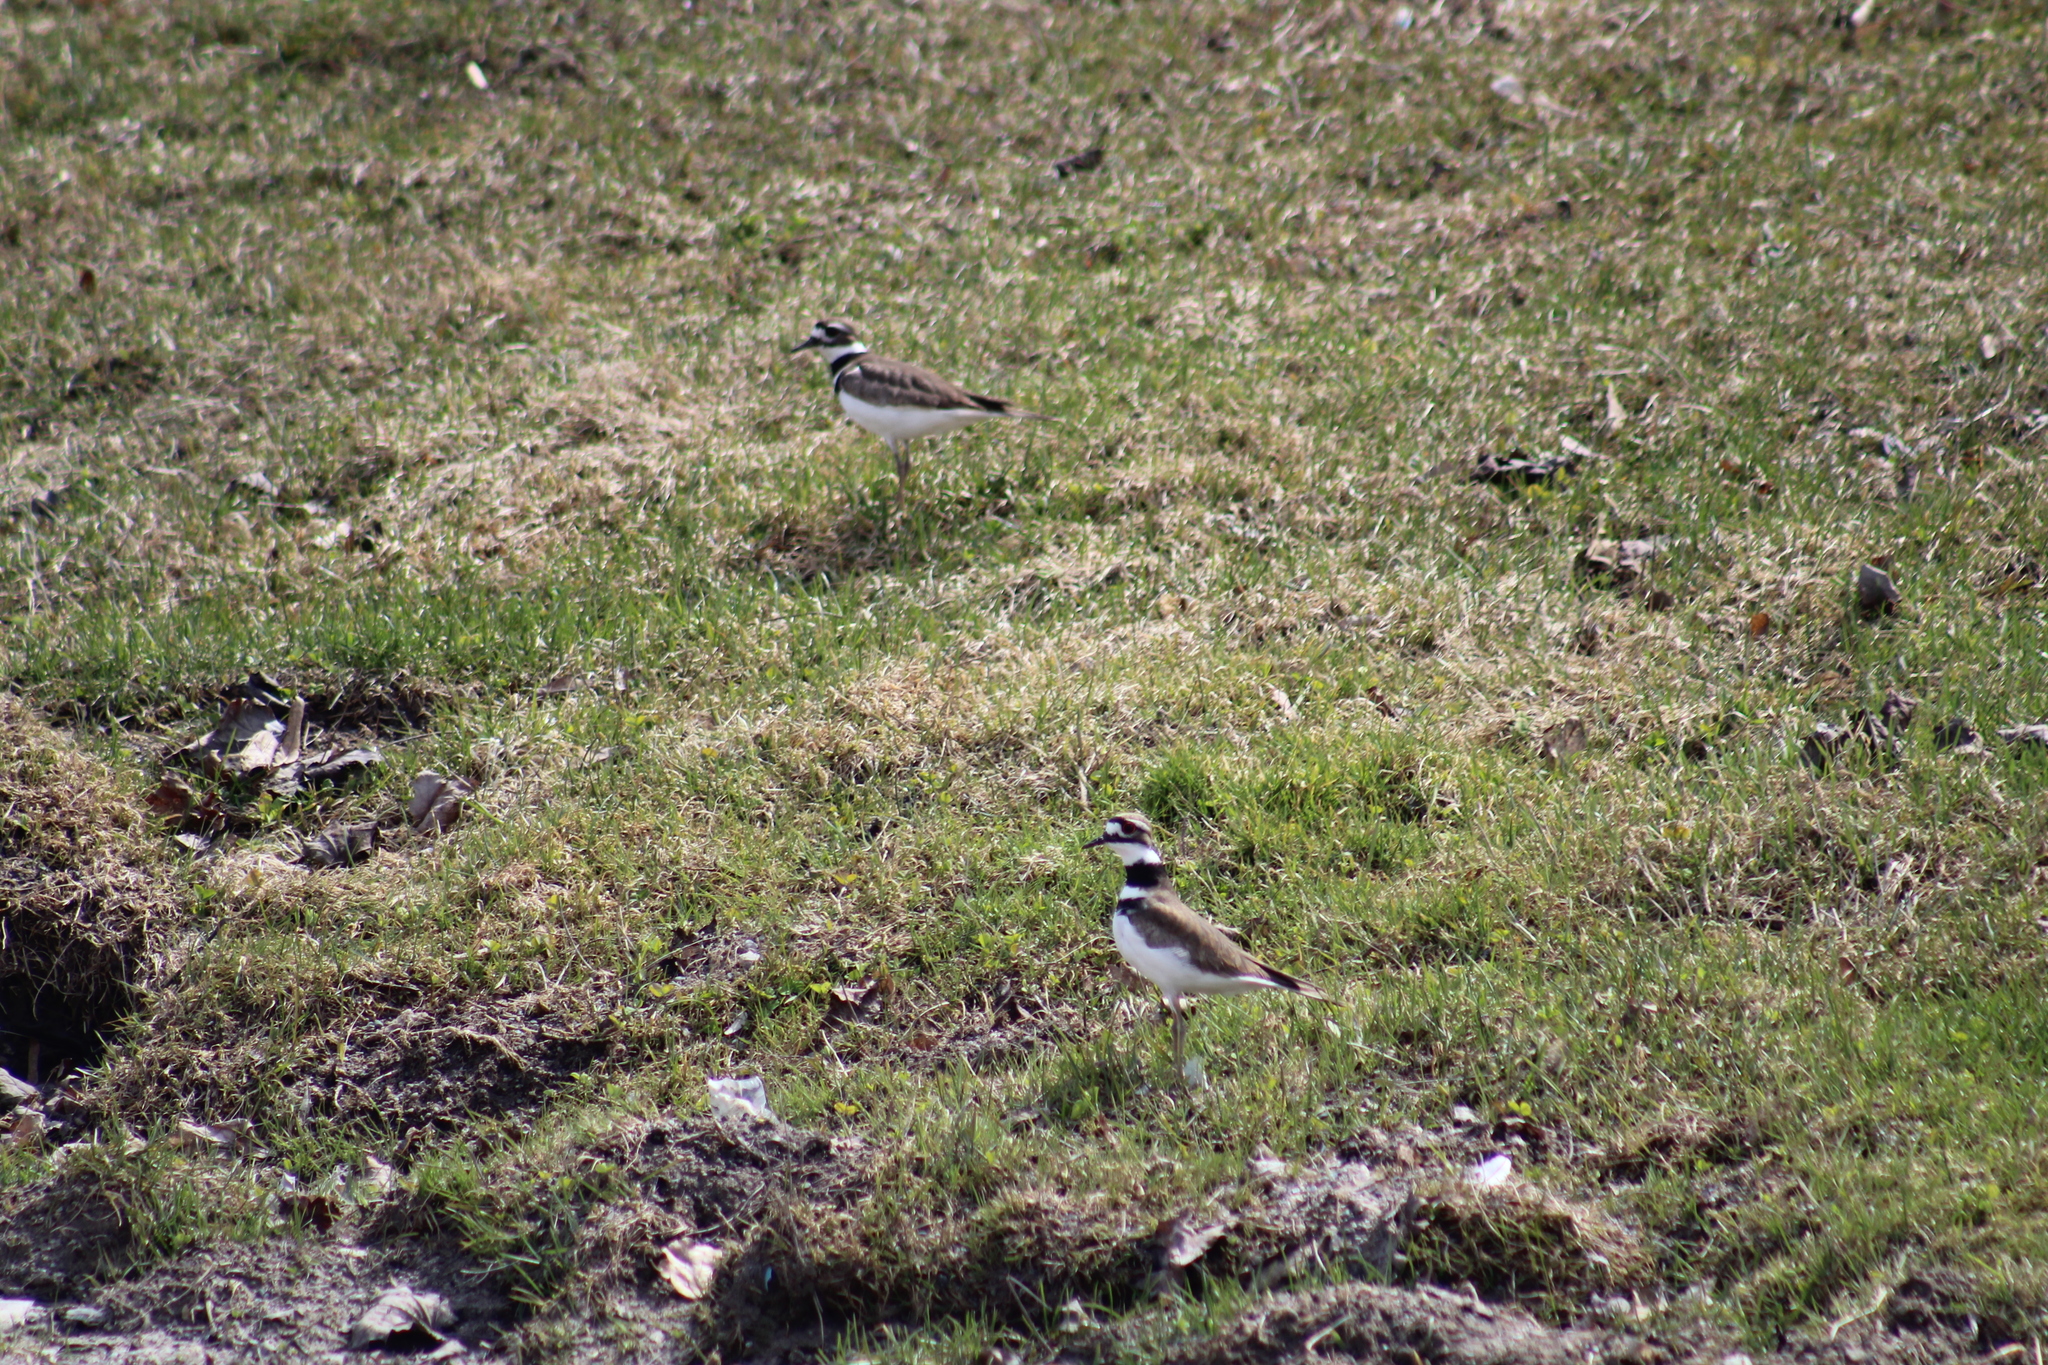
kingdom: Animalia
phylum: Chordata
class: Aves
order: Charadriiformes
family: Charadriidae
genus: Charadrius
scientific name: Charadrius vociferus
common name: Killdeer
